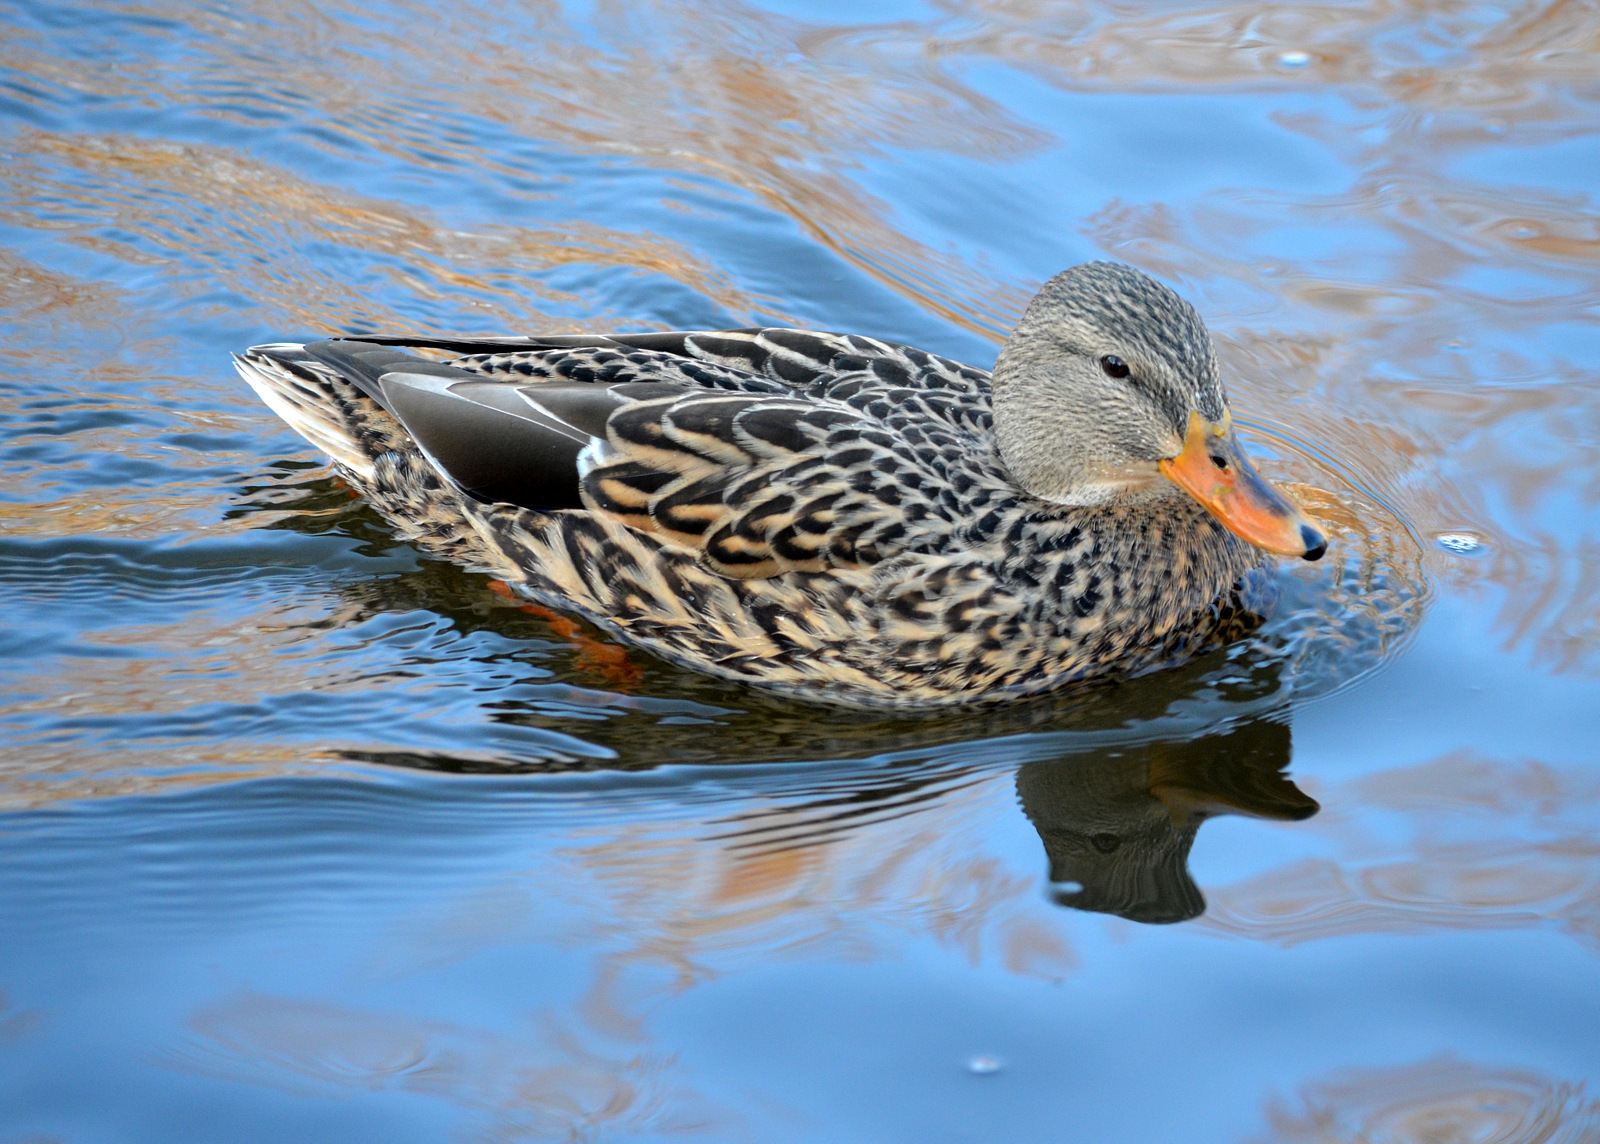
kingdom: Animalia
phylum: Chordata
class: Aves
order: Anseriformes
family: Anatidae
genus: Anas
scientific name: Anas platyrhynchos
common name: Mallard
